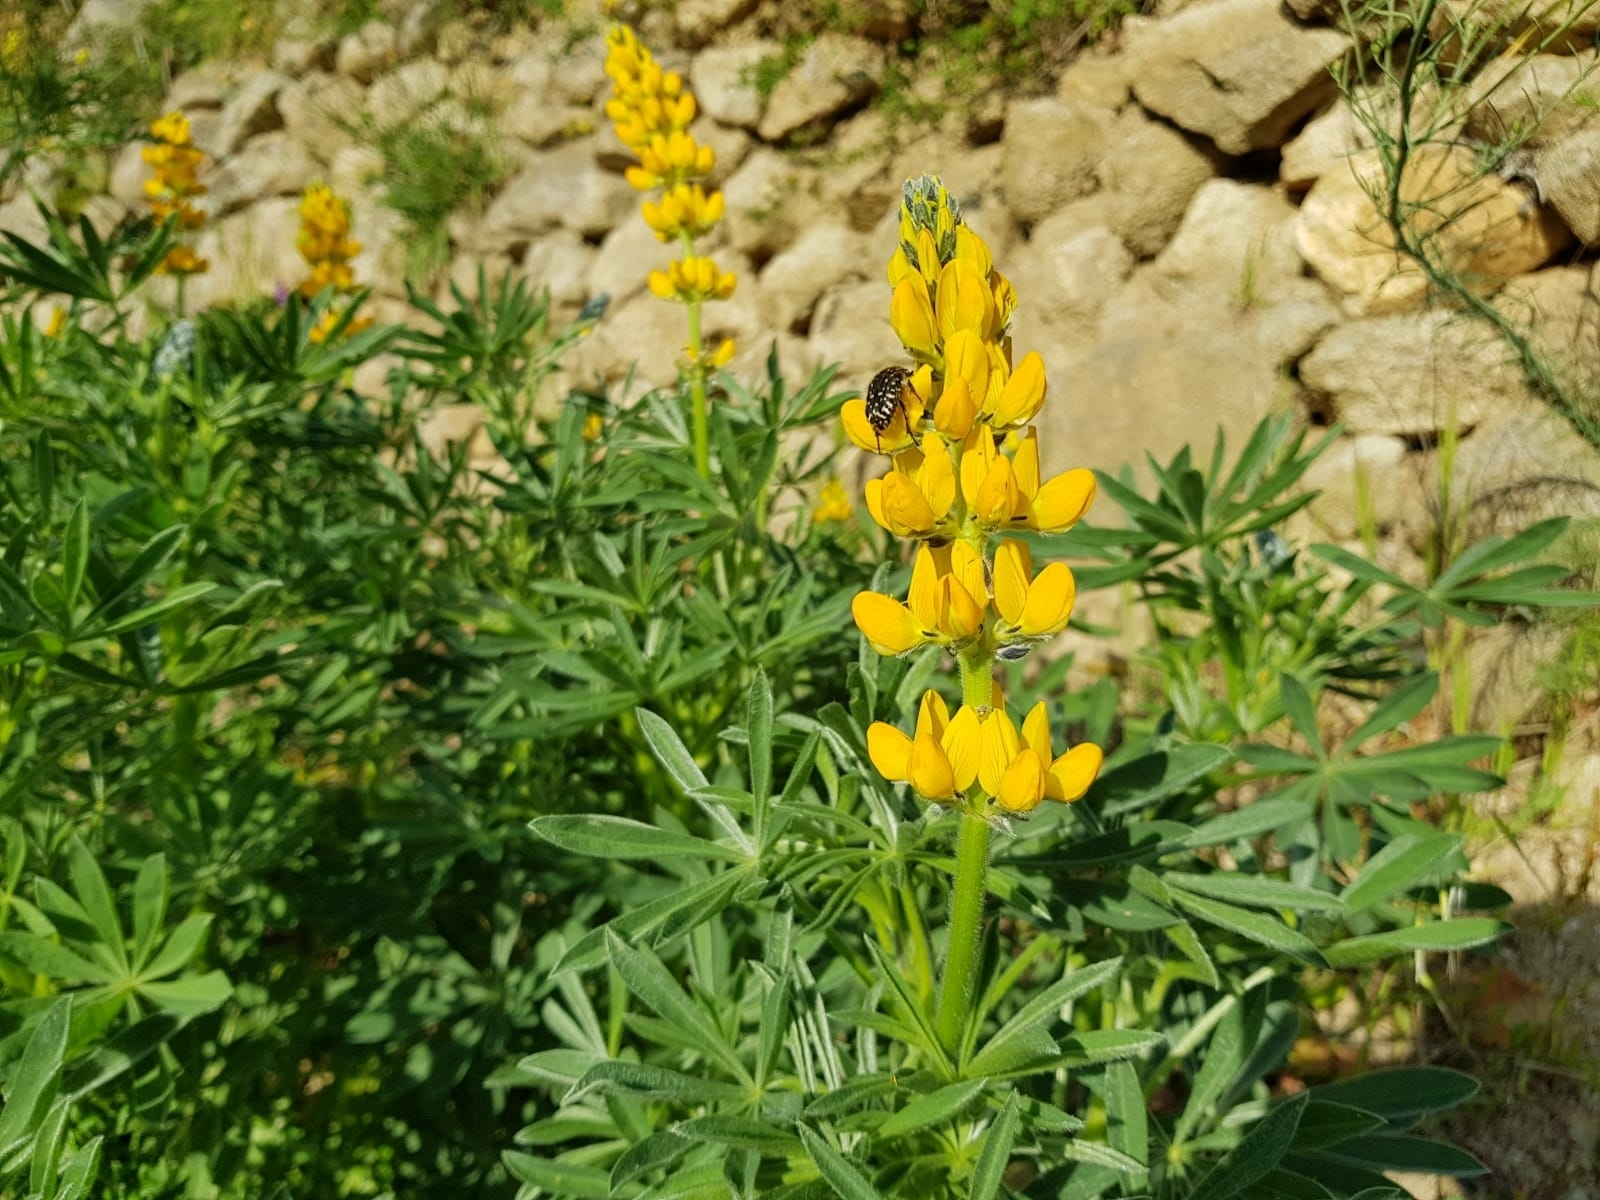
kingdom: Plantae
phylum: Tracheophyta
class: Magnoliopsida
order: Fabales
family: Fabaceae
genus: Lupinus
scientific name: Lupinus luteus
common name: European yellow lupine
